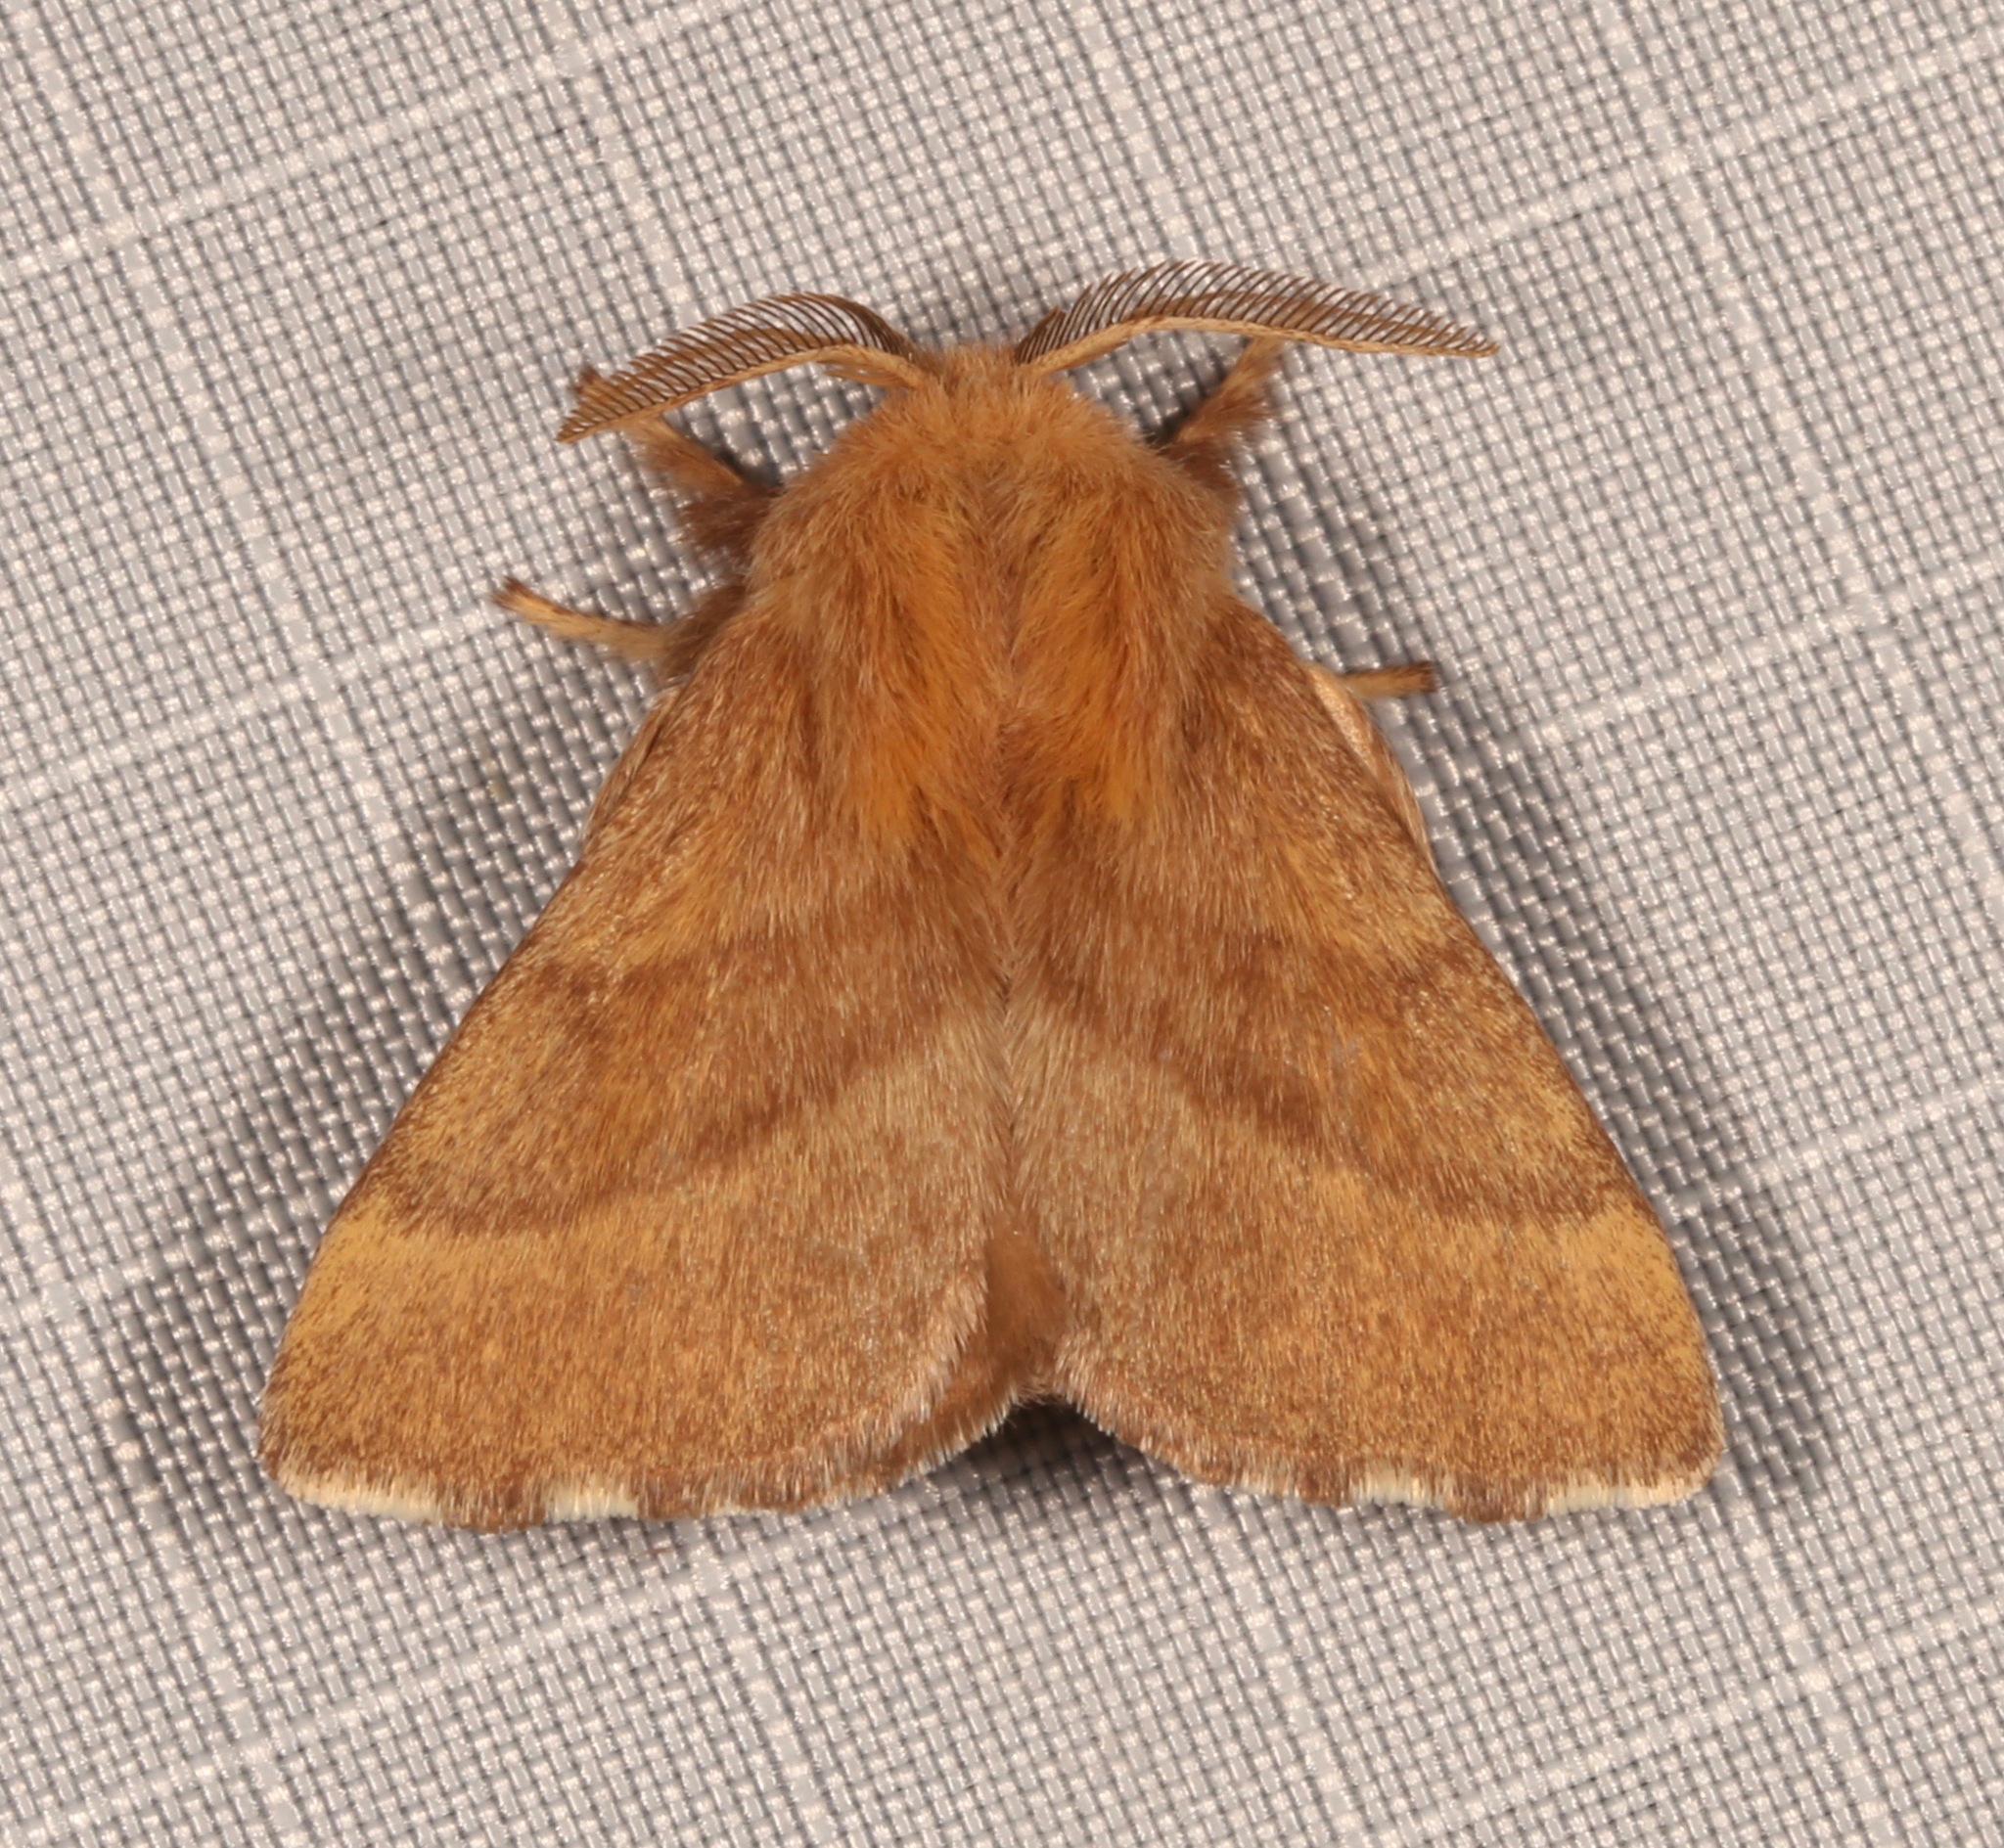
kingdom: Animalia
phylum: Arthropoda
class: Insecta
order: Lepidoptera
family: Lasiocampidae
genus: Malacosoma
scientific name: Malacosoma disstria
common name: Forest tent caterpillar
